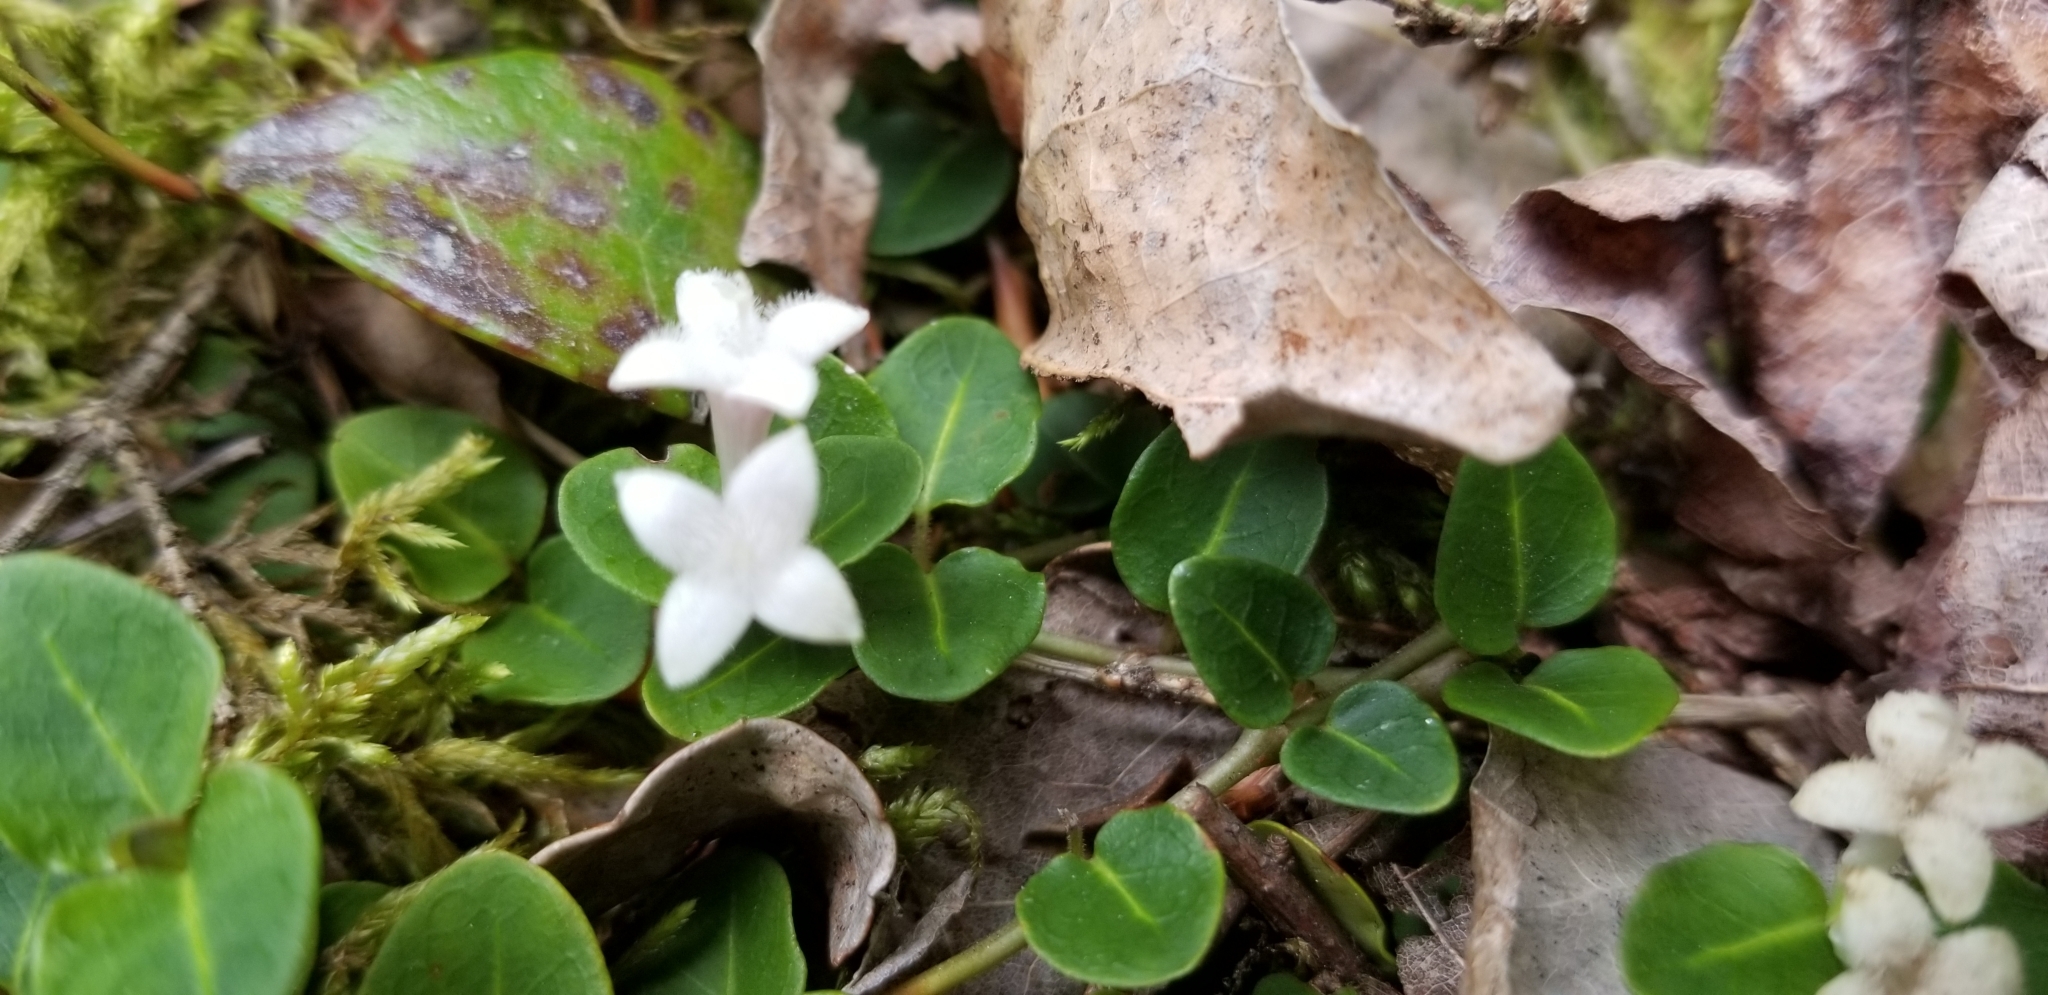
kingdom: Plantae
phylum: Tracheophyta
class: Magnoliopsida
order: Gentianales
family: Rubiaceae
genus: Mitchella
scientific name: Mitchella repens
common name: Partridge-berry
